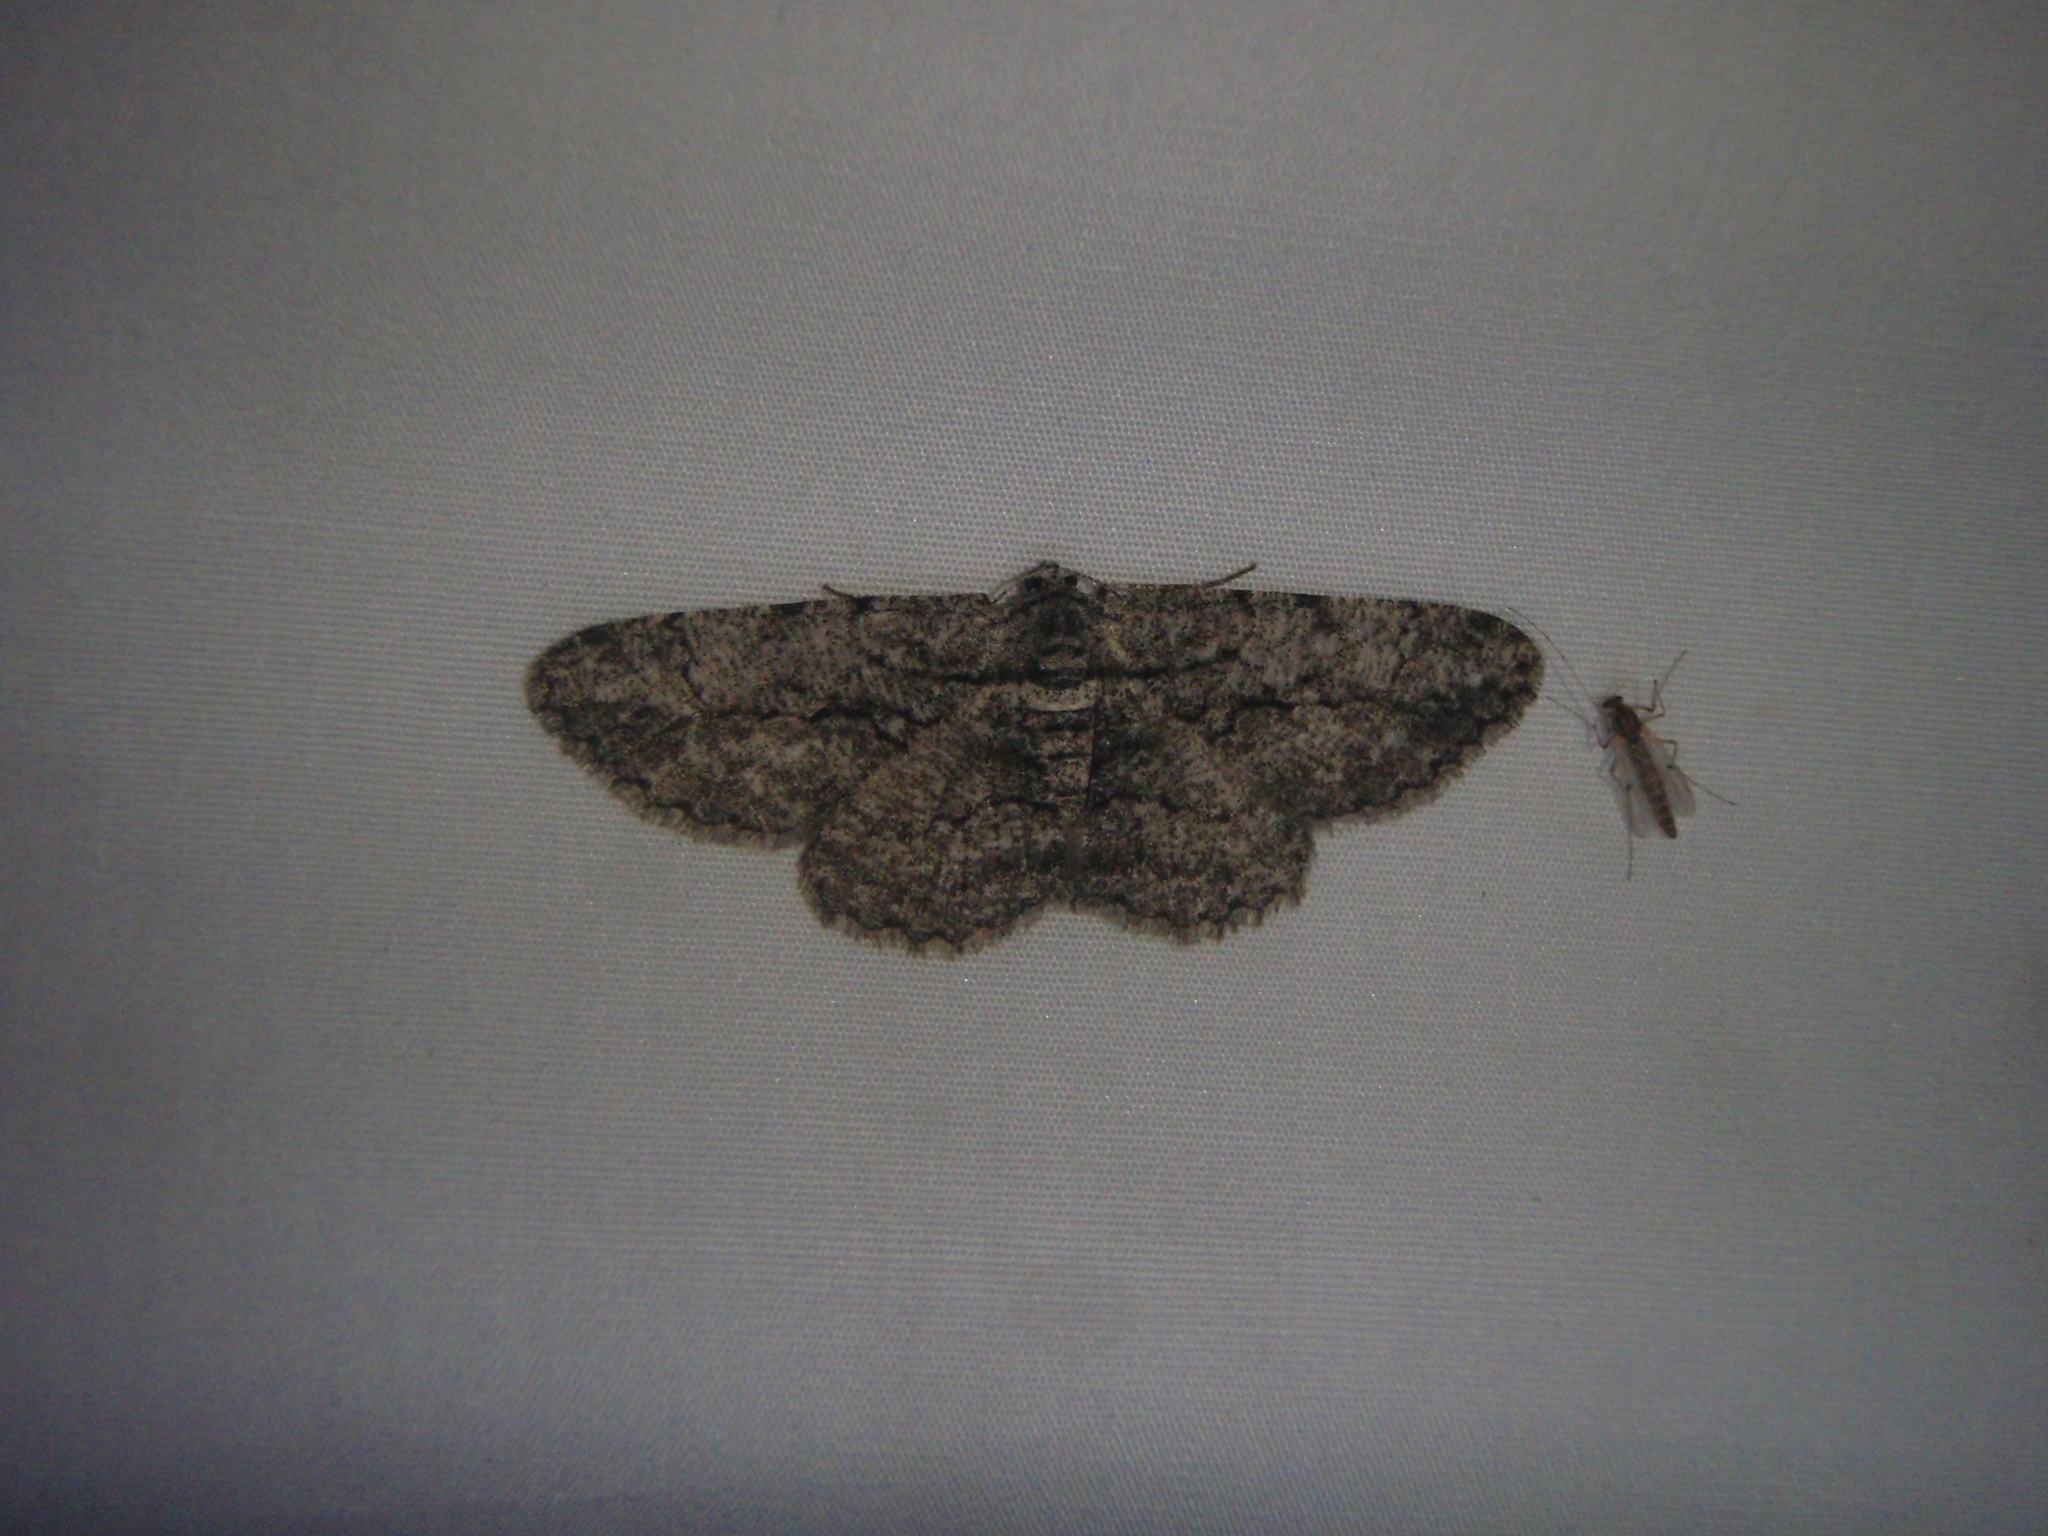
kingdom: Animalia
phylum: Arthropoda
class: Insecta
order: Lepidoptera
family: Geometridae
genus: Anavitrinella
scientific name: Anavitrinella pampinaria
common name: Common gray
